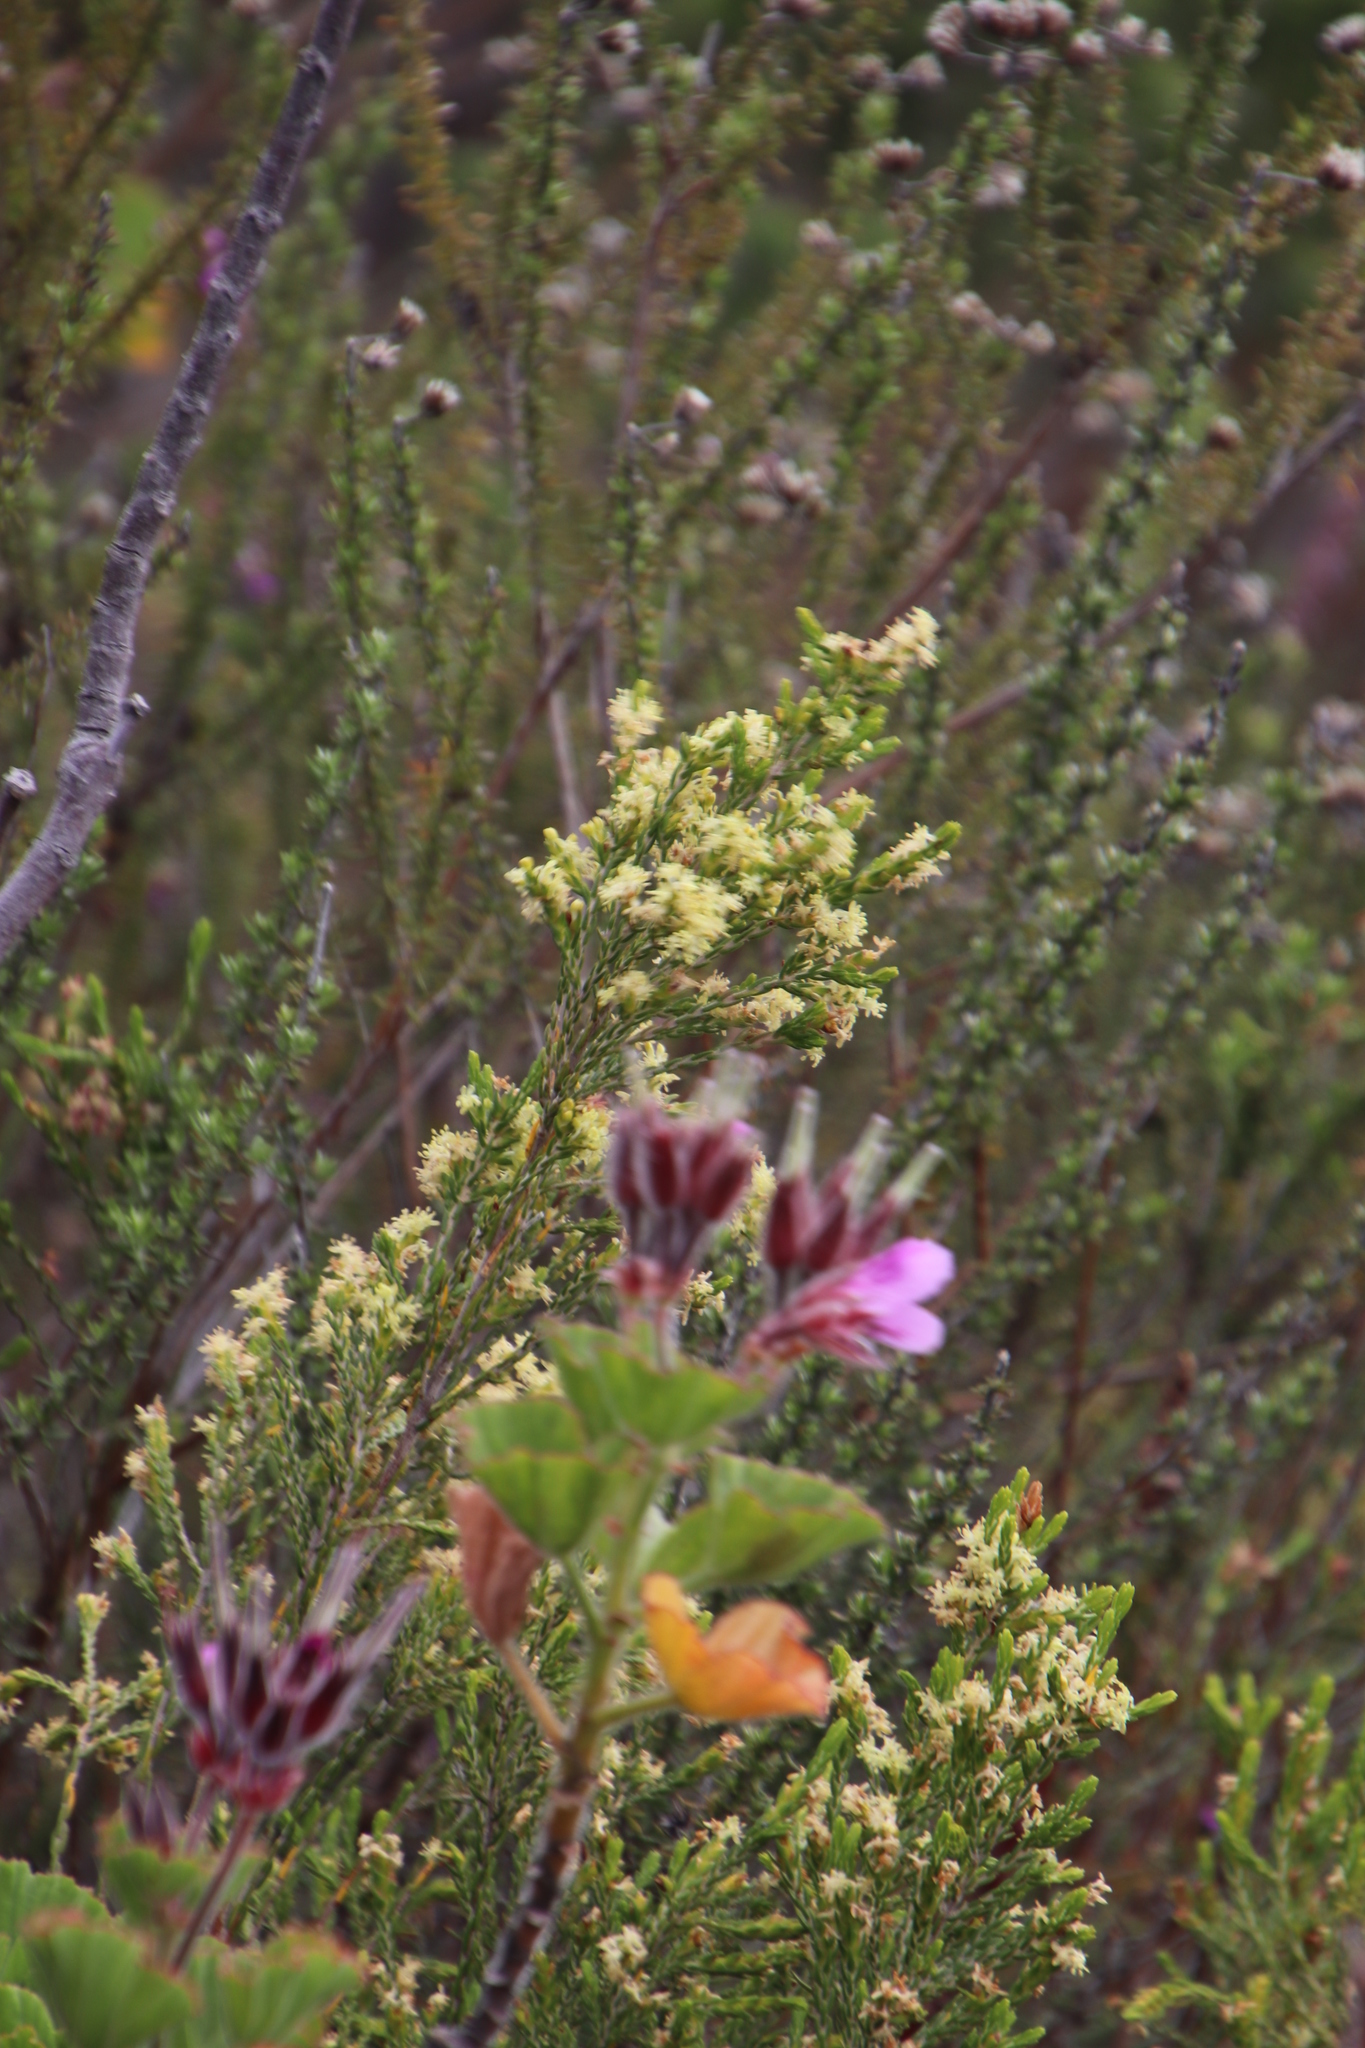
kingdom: Plantae
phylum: Tracheophyta
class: Magnoliopsida
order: Malvales
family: Thymelaeaceae
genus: Passerina
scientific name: Passerina corymbosa
